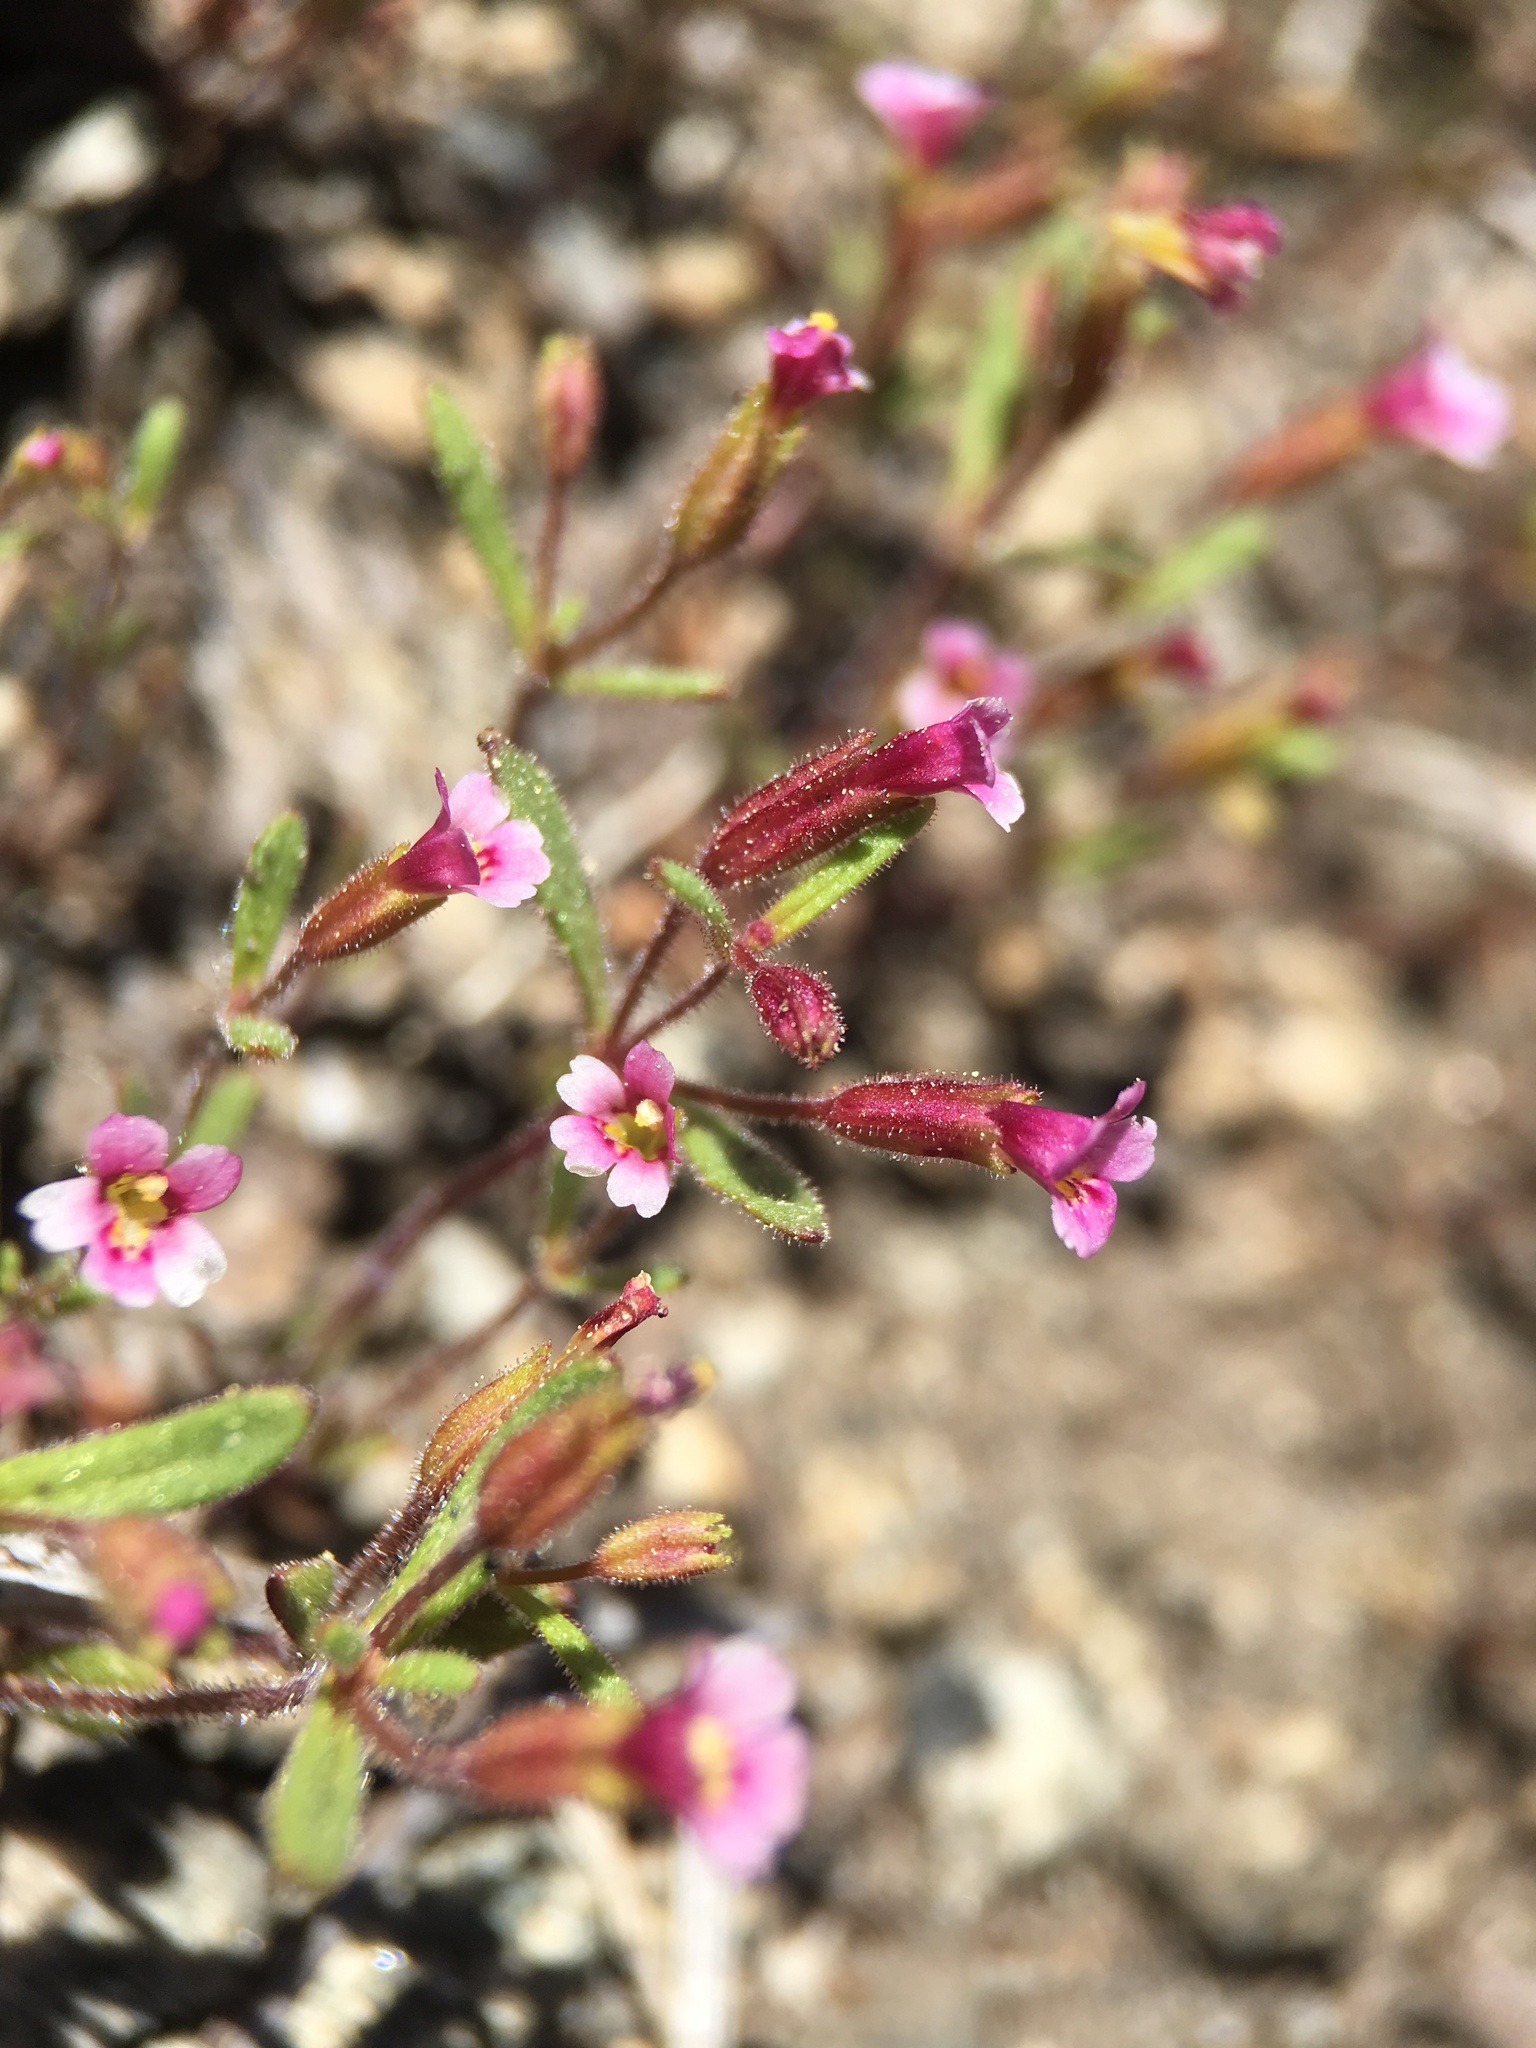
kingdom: Plantae
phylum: Tracheophyta
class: Magnoliopsida
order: Lamiales
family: Phrymaceae
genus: Erythranthe
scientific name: Erythranthe breweri
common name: Brewer's monkeyflower
